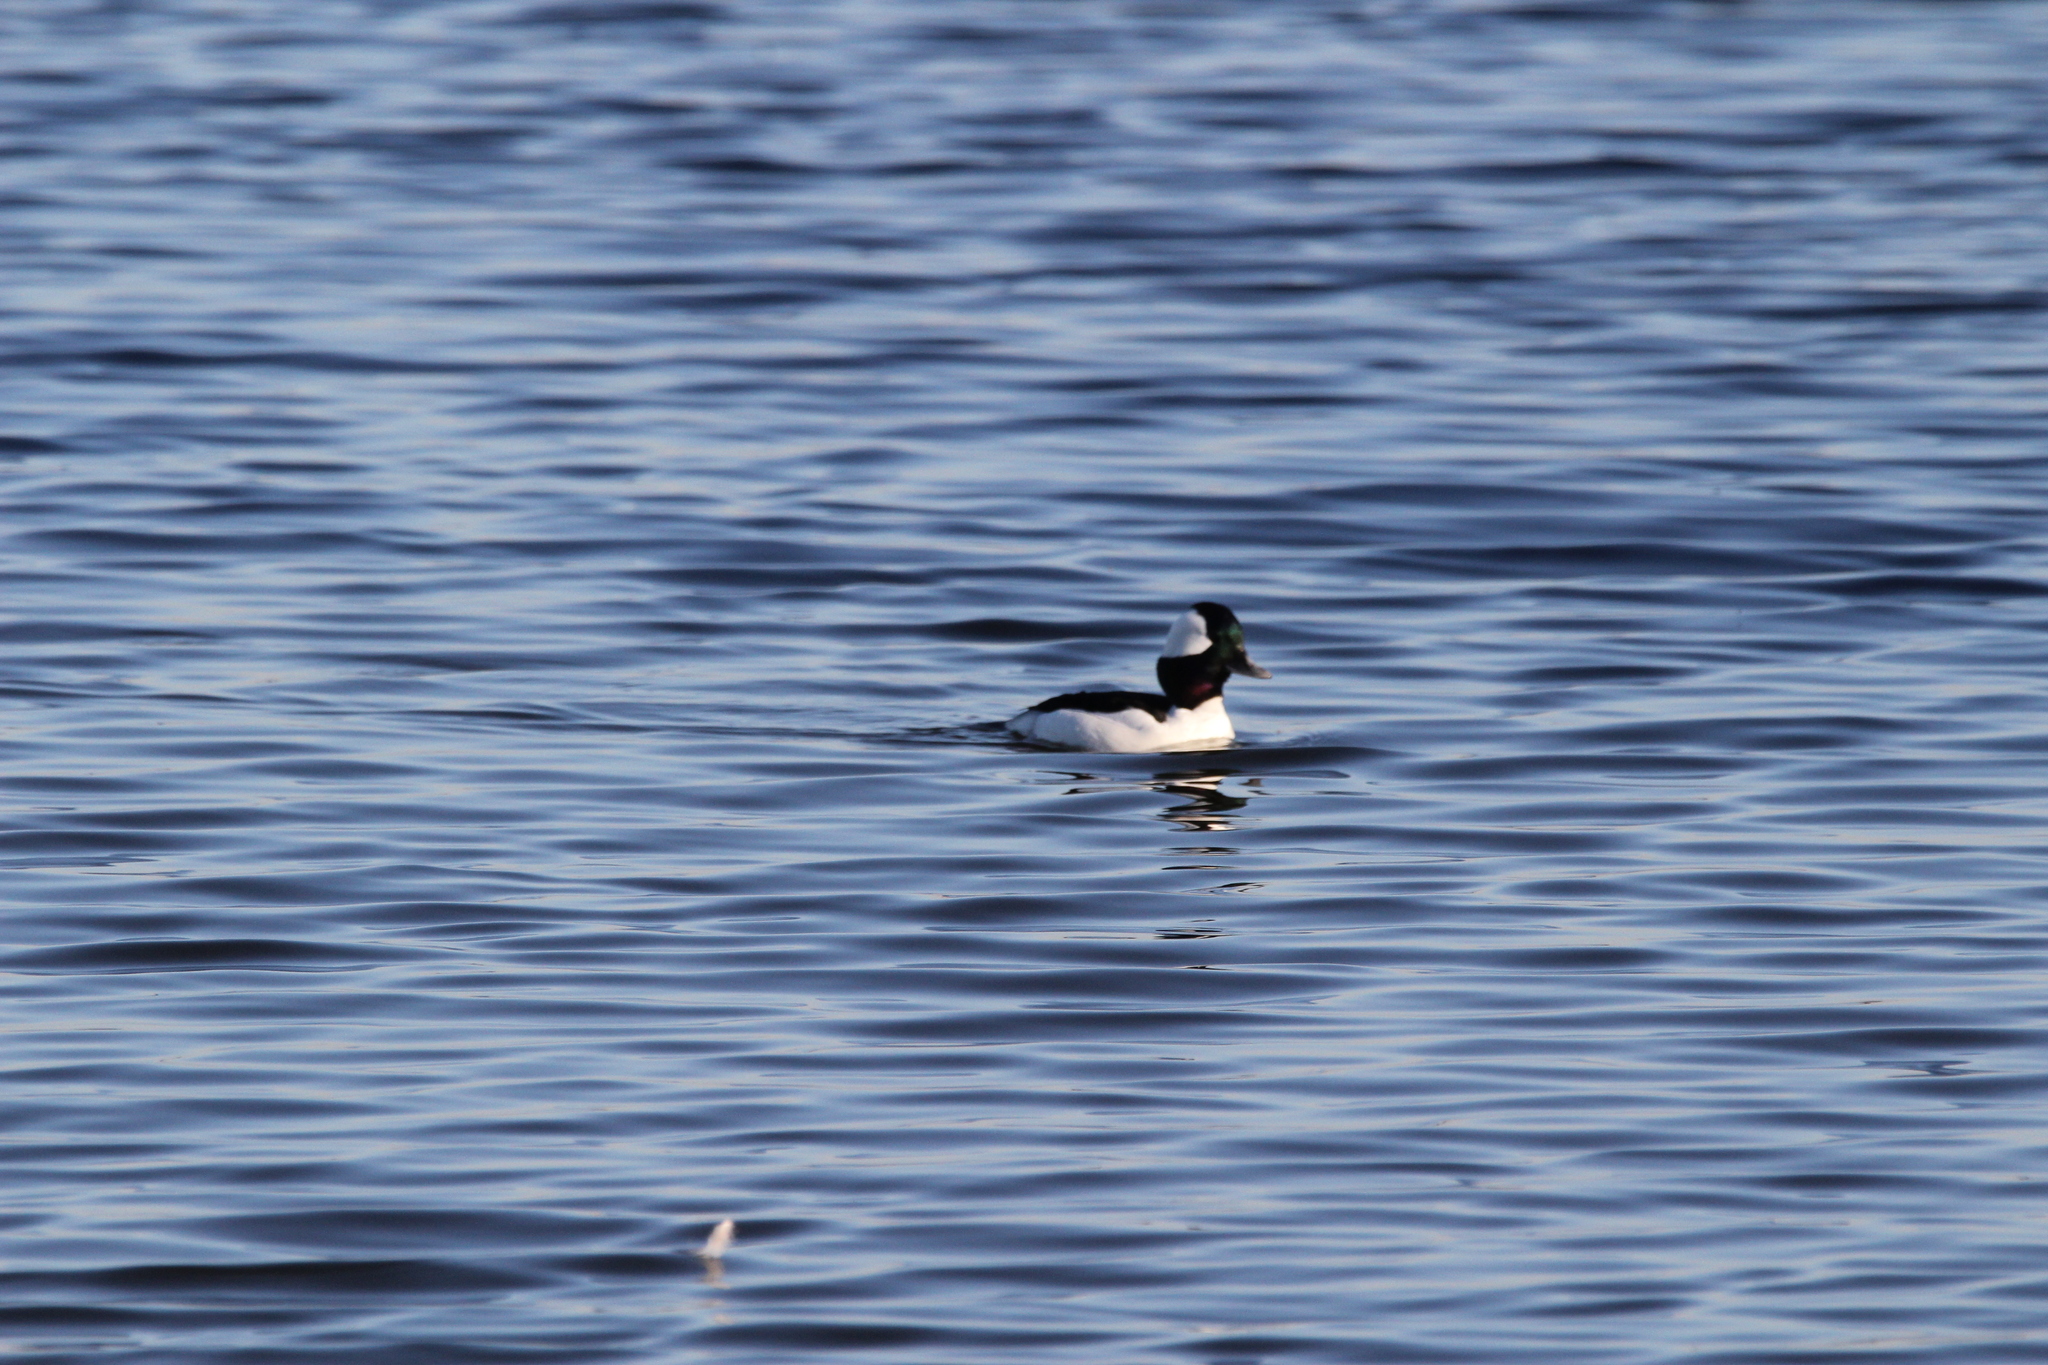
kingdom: Animalia
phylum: Chordata
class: Aves
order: Anseriformes
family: Anatidae
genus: Bucephala
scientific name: Bucephala albeola
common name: Bufflehead
